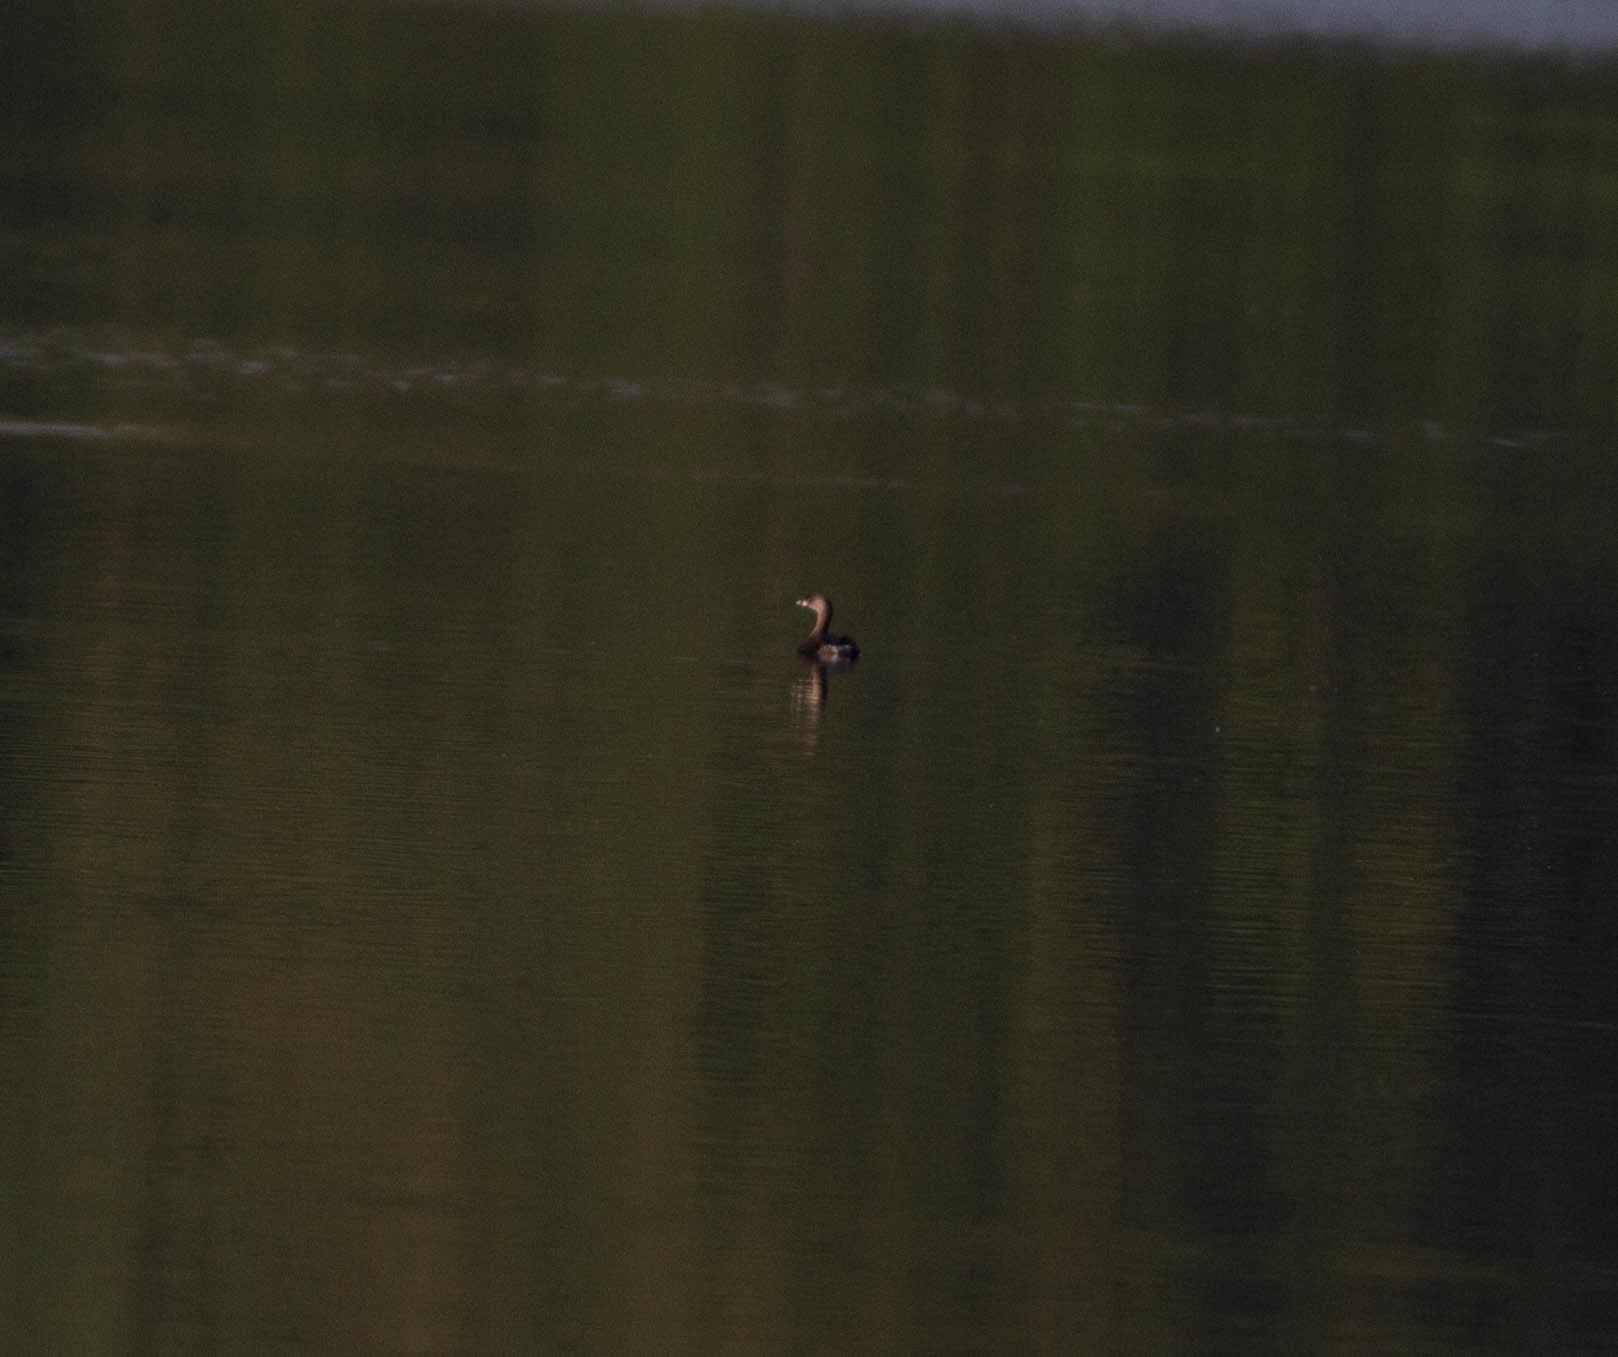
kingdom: Animalia
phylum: Chordata
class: Aves
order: Podicipediformes
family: Podicipedidae
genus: Podilymbus
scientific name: Podilymbus podiceps
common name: Pied-billed grebe
